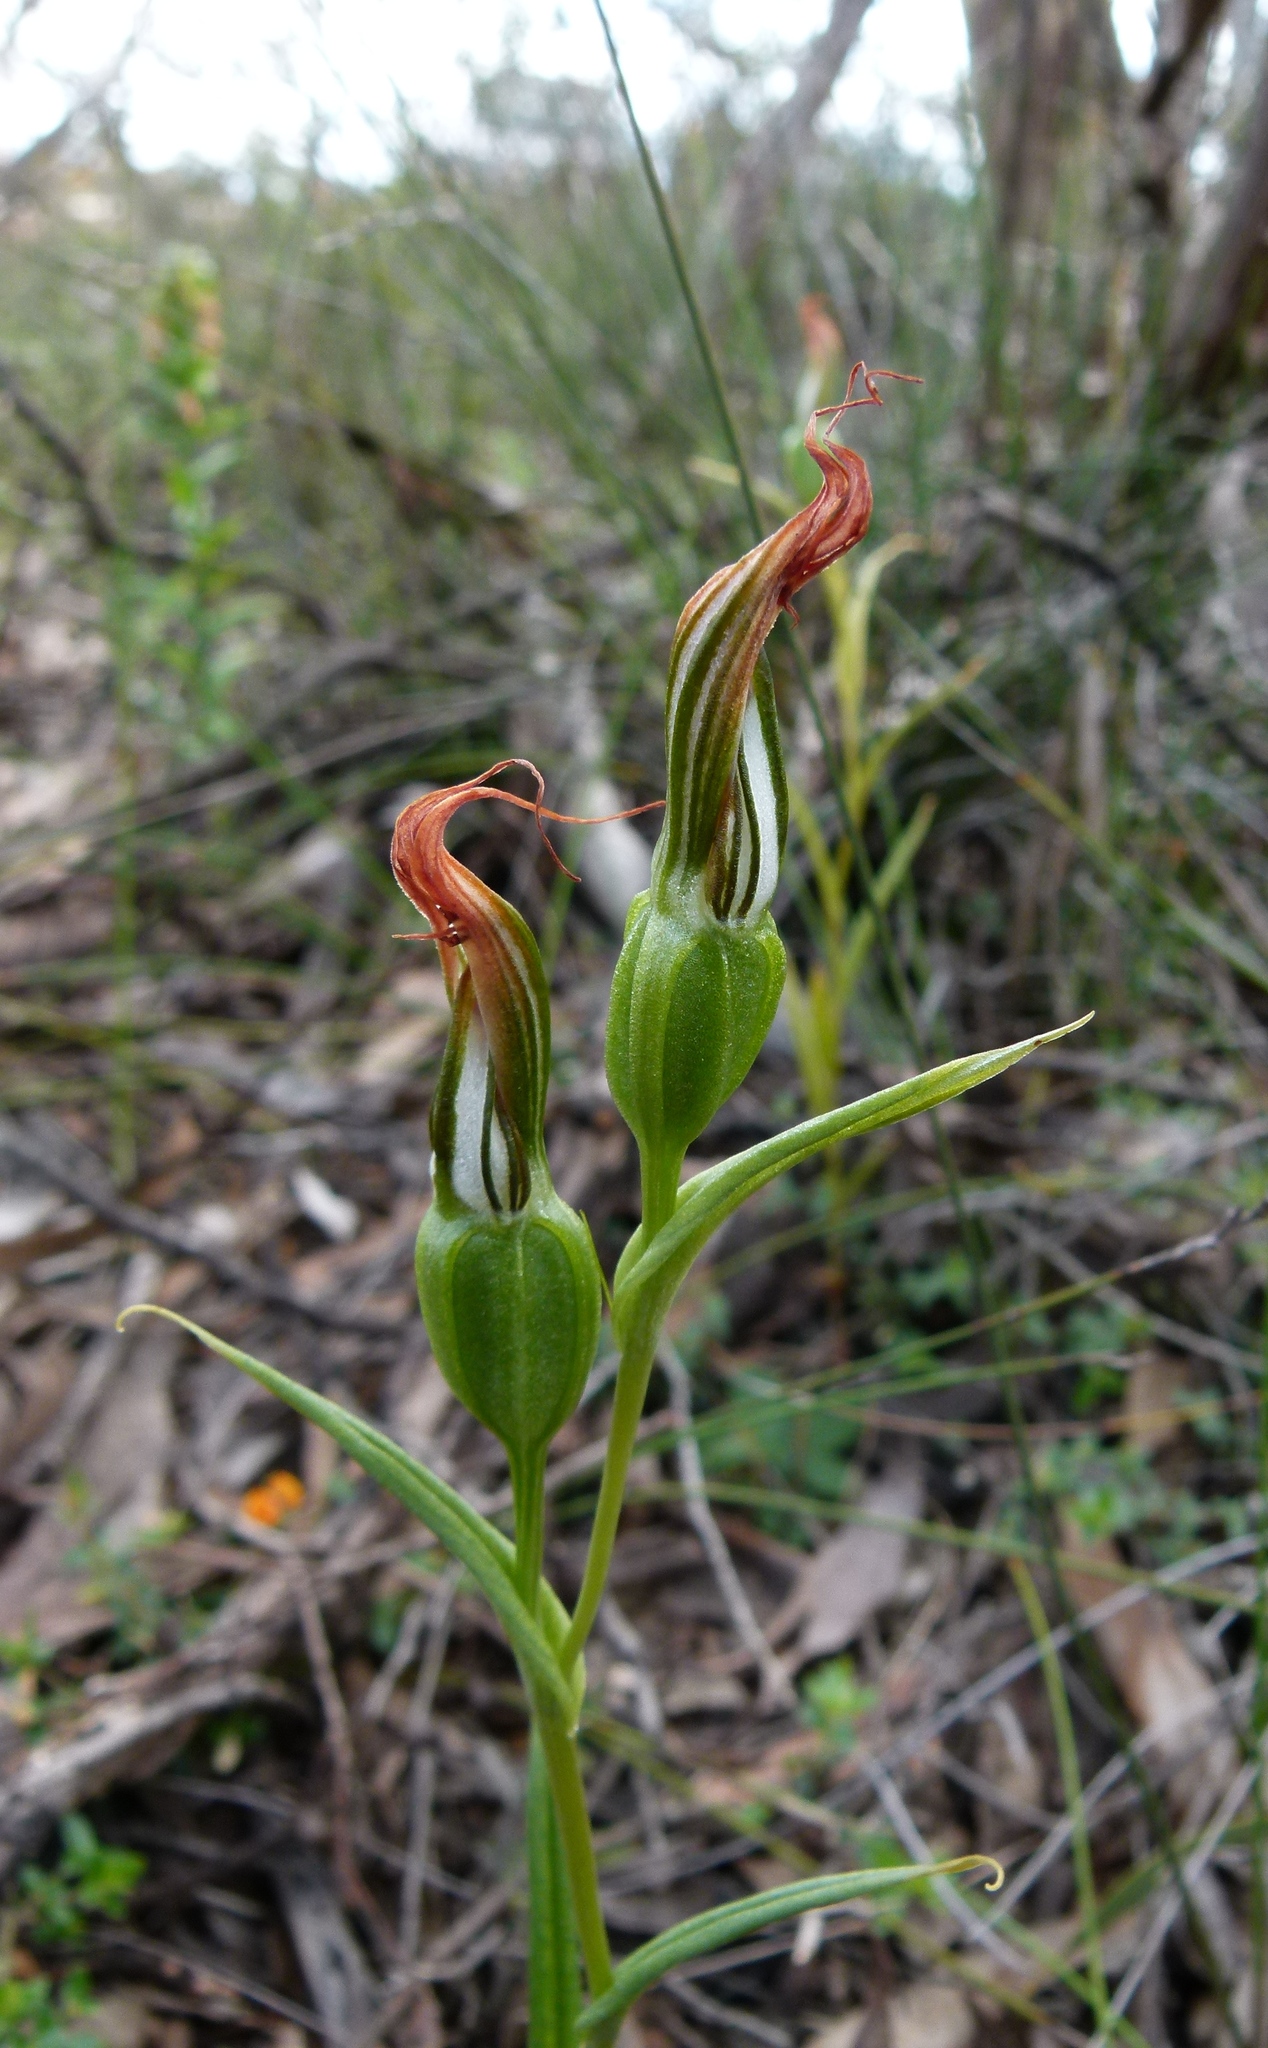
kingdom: Plantae
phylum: Tracheophyta
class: Liliopsida
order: Asparagales
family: Orchidaceae
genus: Pterostylis
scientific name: Pterostylis recurva
